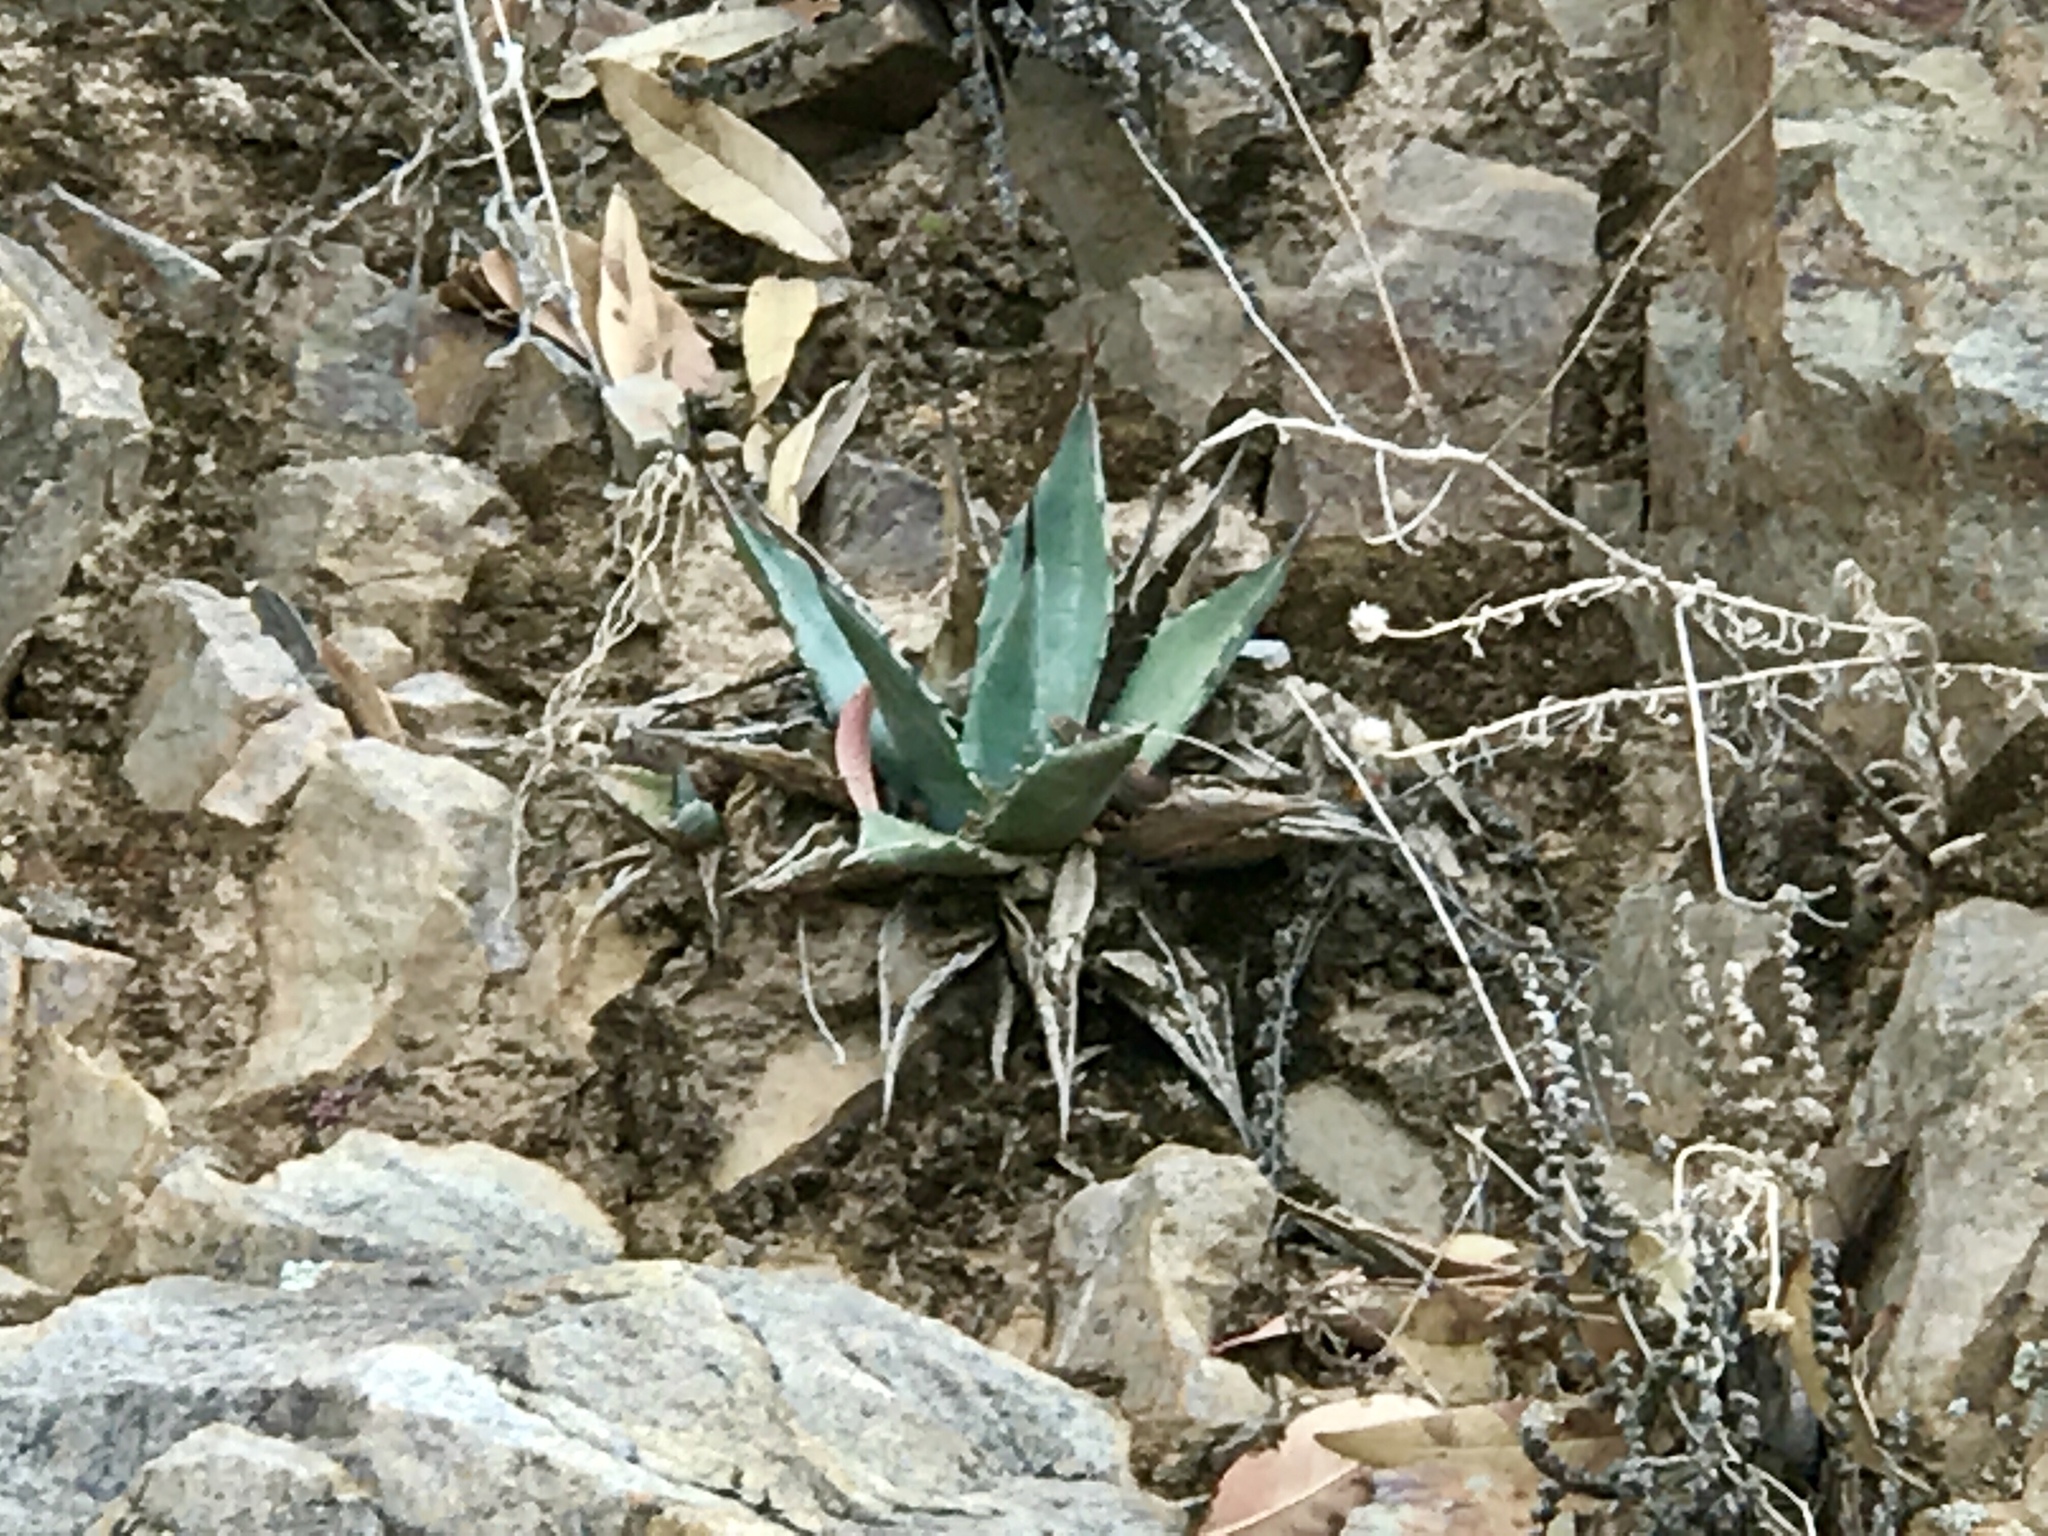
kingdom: Plantae
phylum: Tracheophyta
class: Liliopsida
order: Asparagales
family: Asparagaceae
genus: Agave
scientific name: Agave parryi
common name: Parry's agave
